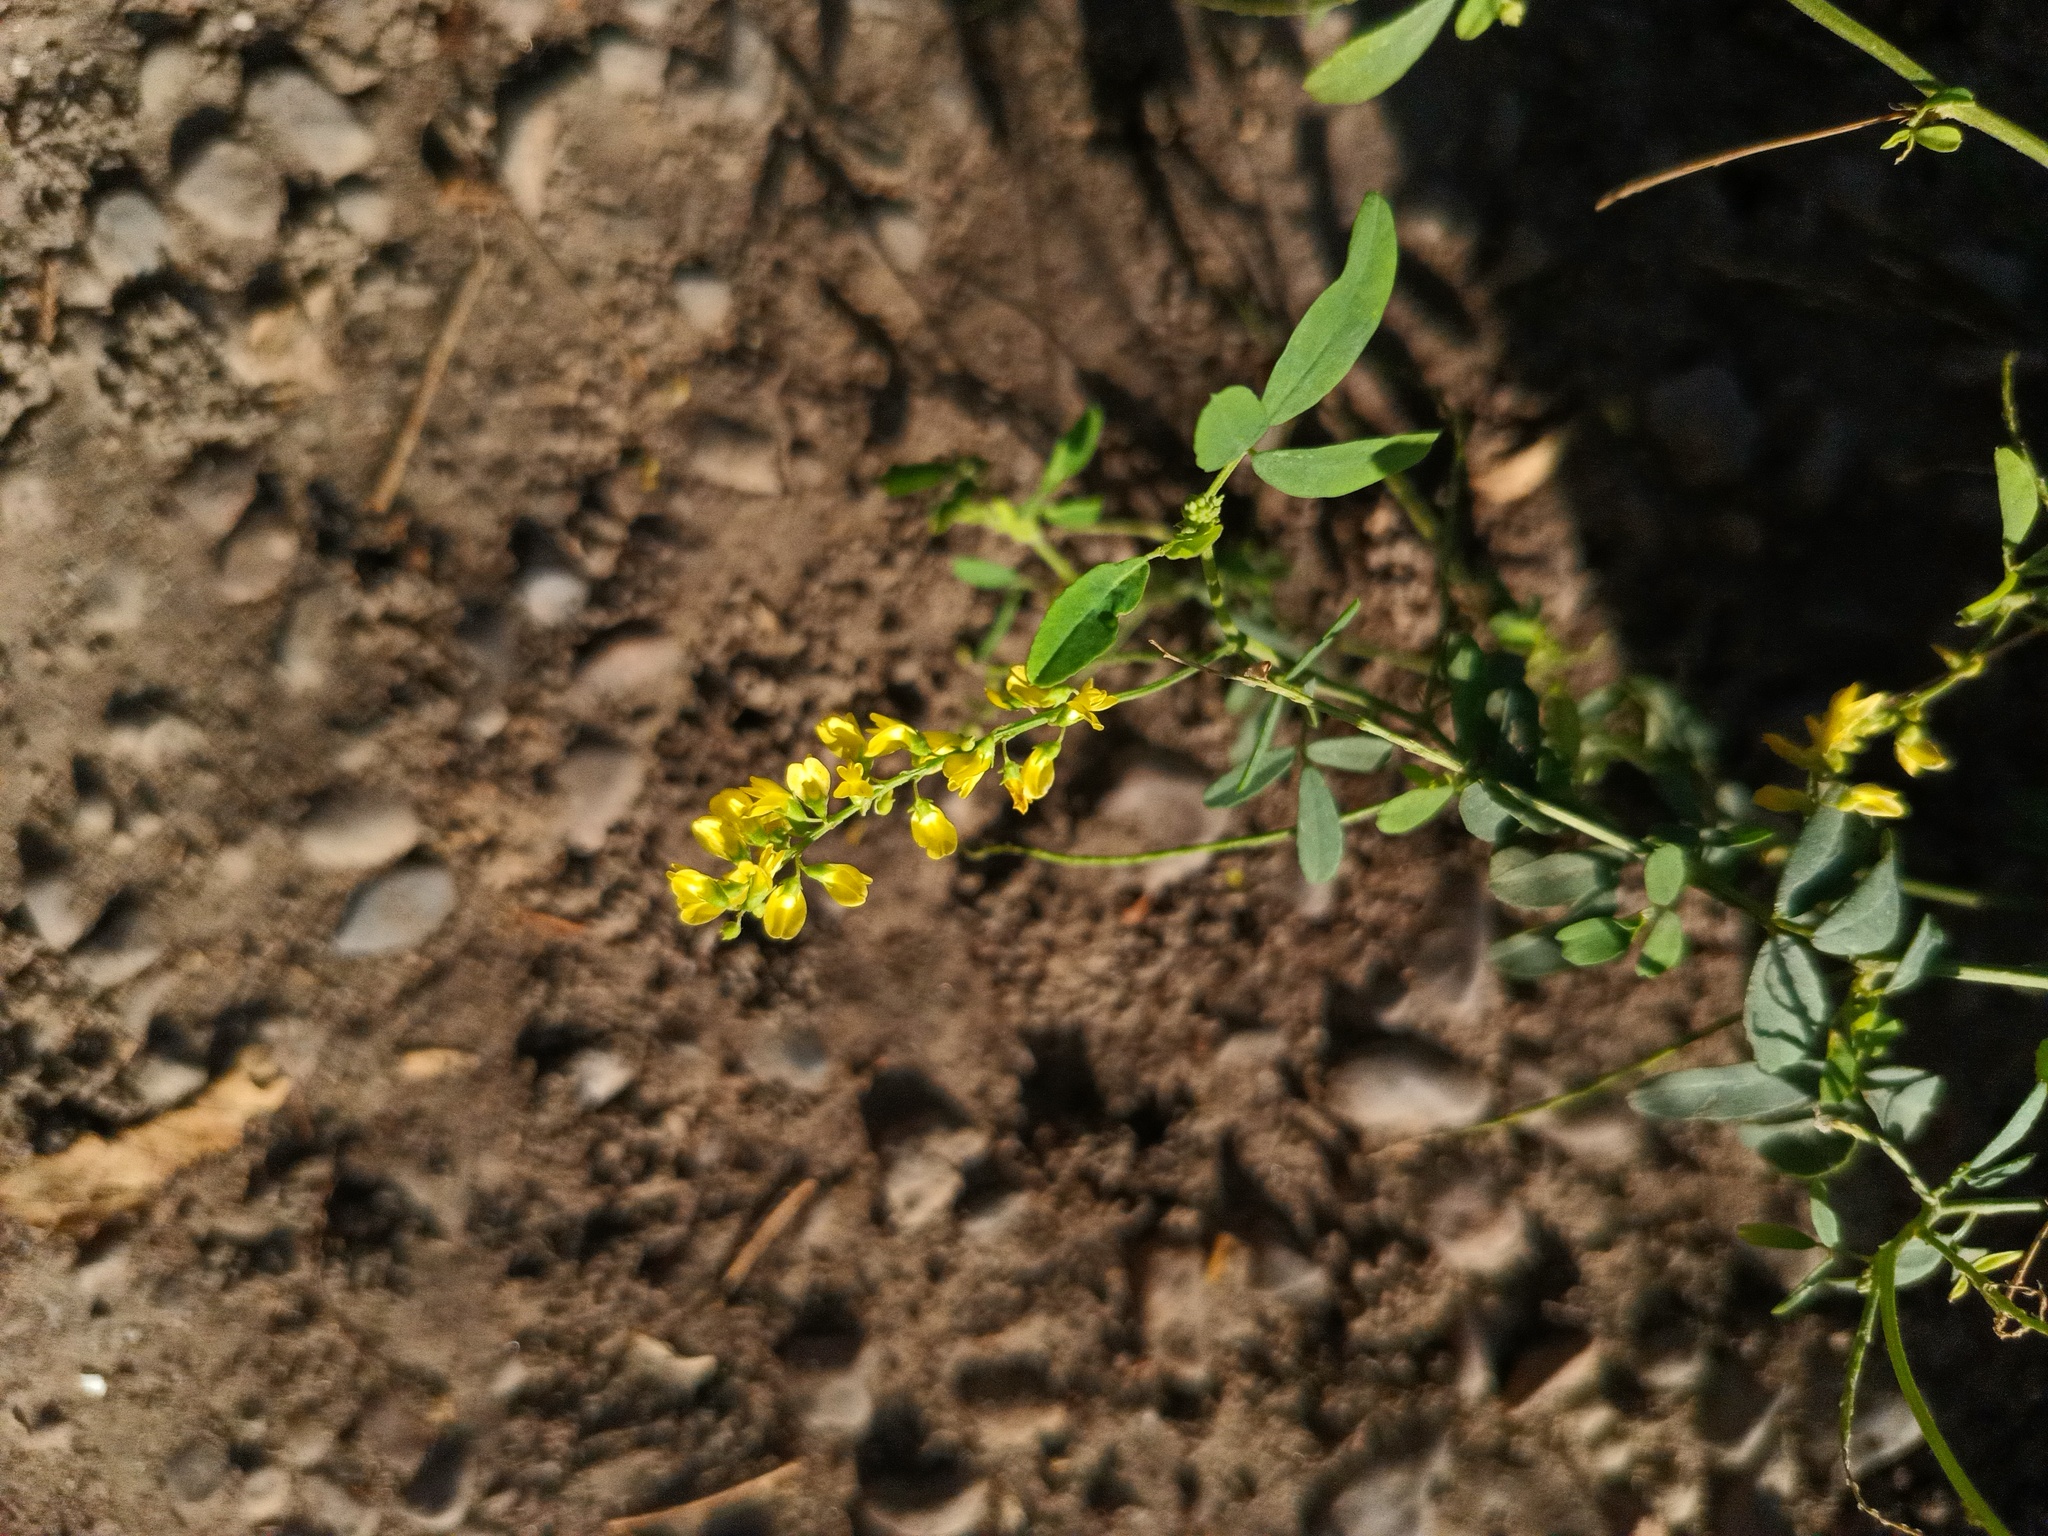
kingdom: Plantae
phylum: Tracheophyta
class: Magnoliopsida
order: Fabales
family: Fabaceae
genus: Melilotus
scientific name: Melilotus officinalis
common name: Sweetclover
